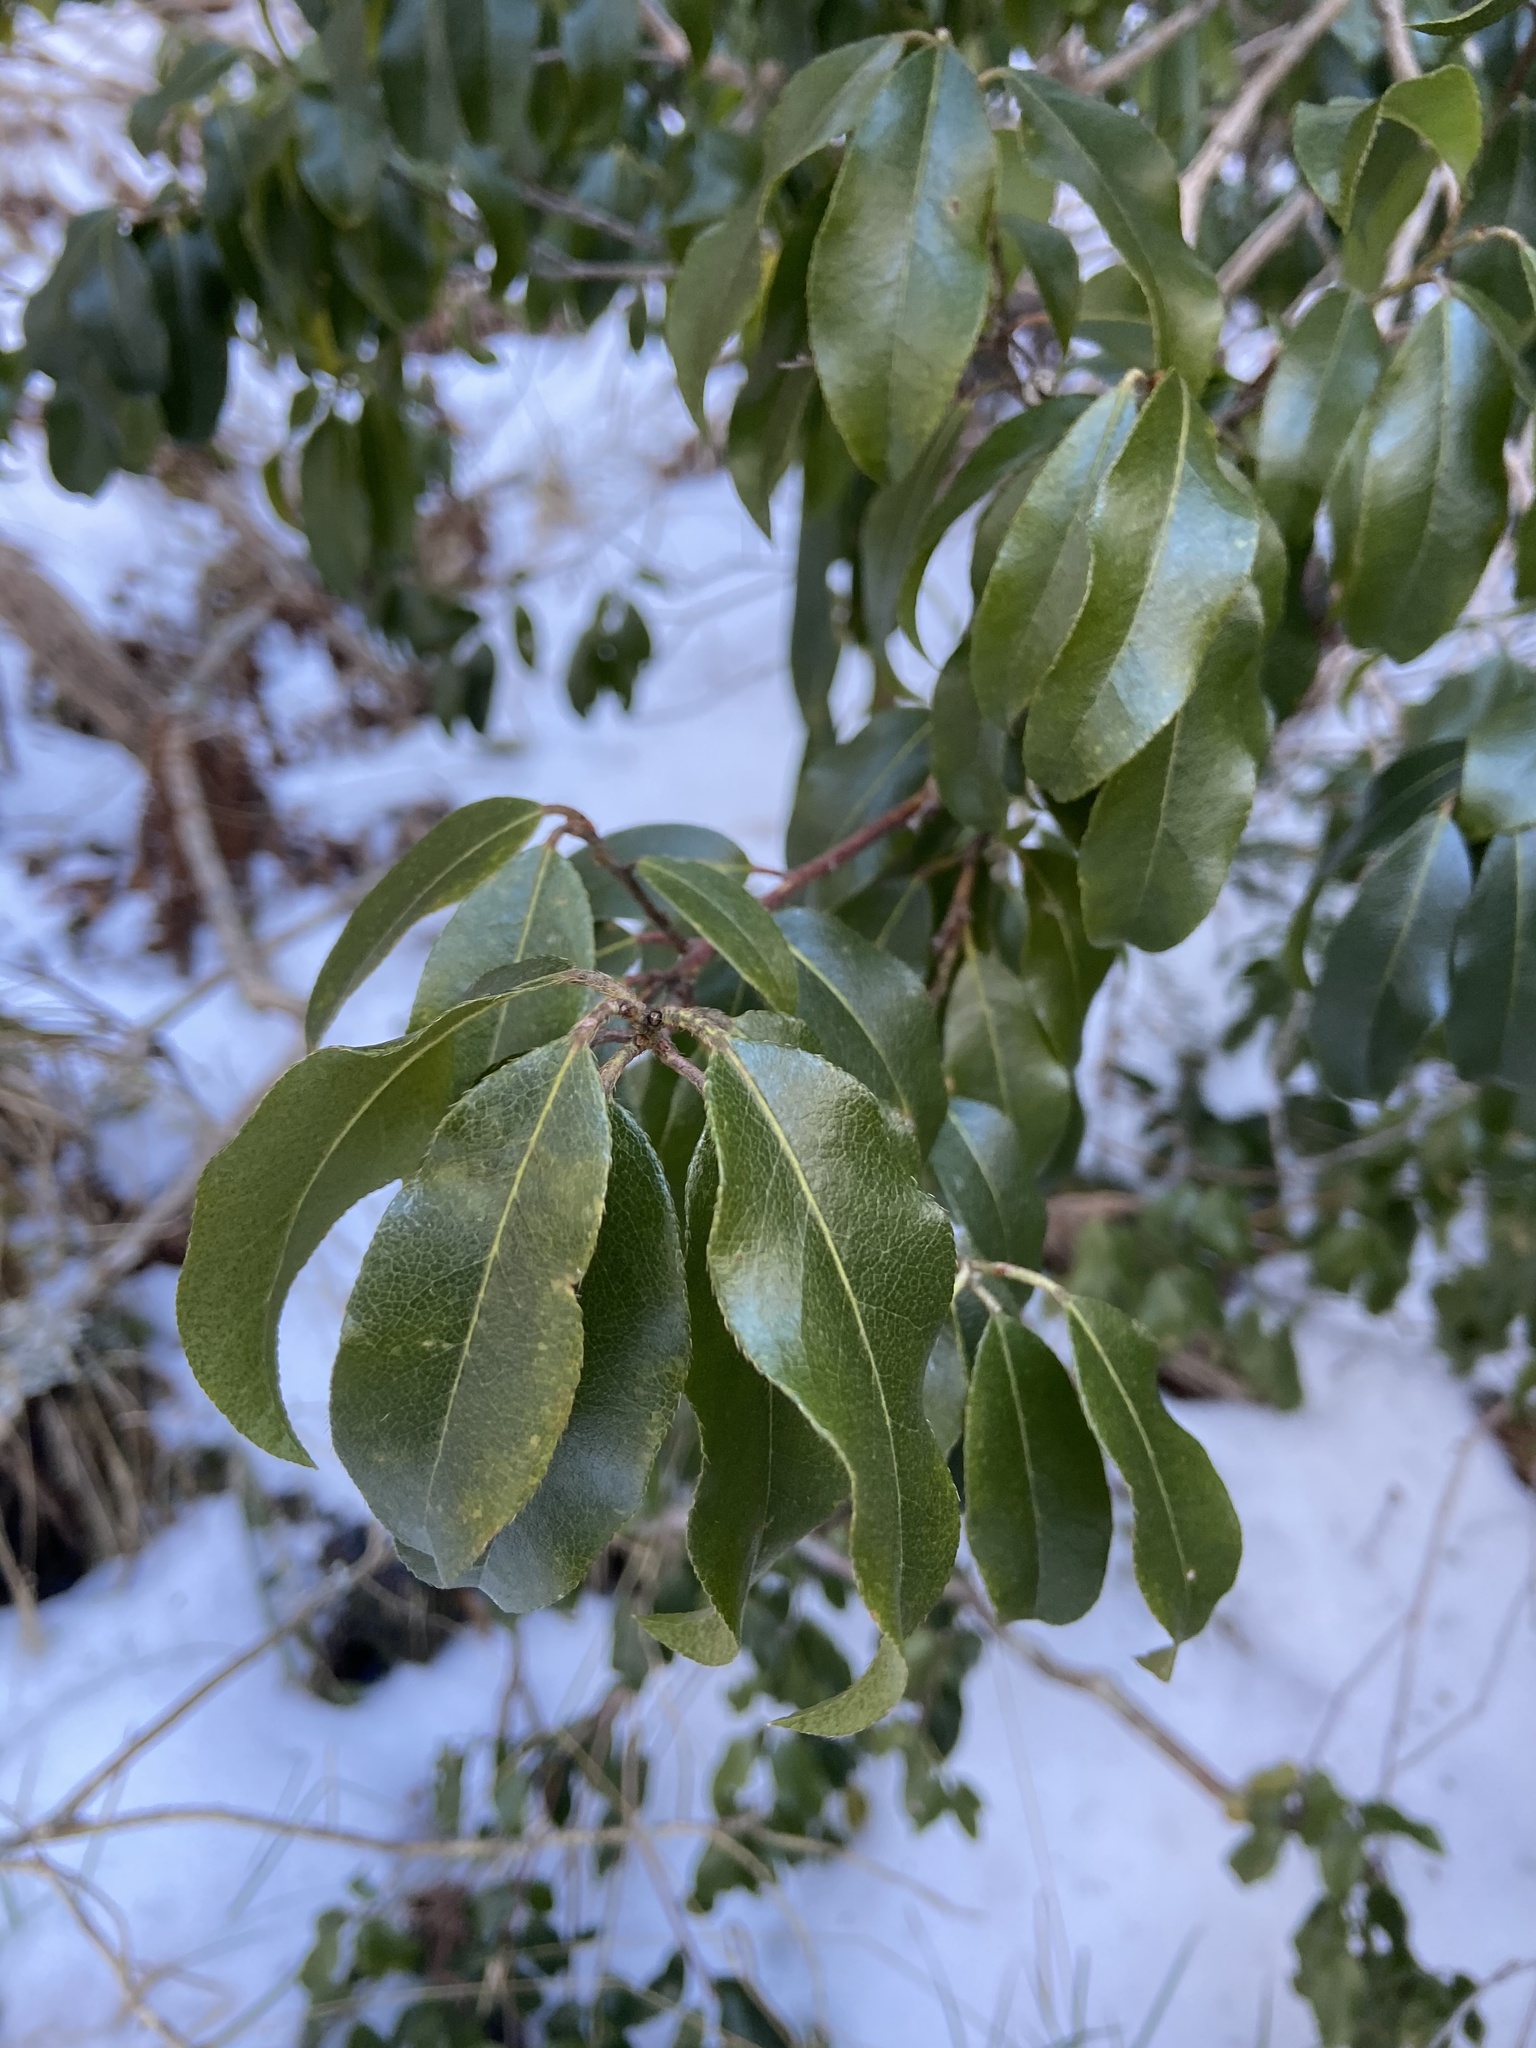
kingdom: Plantae
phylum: Tracheophyta
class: Magnoliopsida
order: Ericales
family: Ericaceae
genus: Pieris
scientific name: Pieris floribunda
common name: Flutterbush
